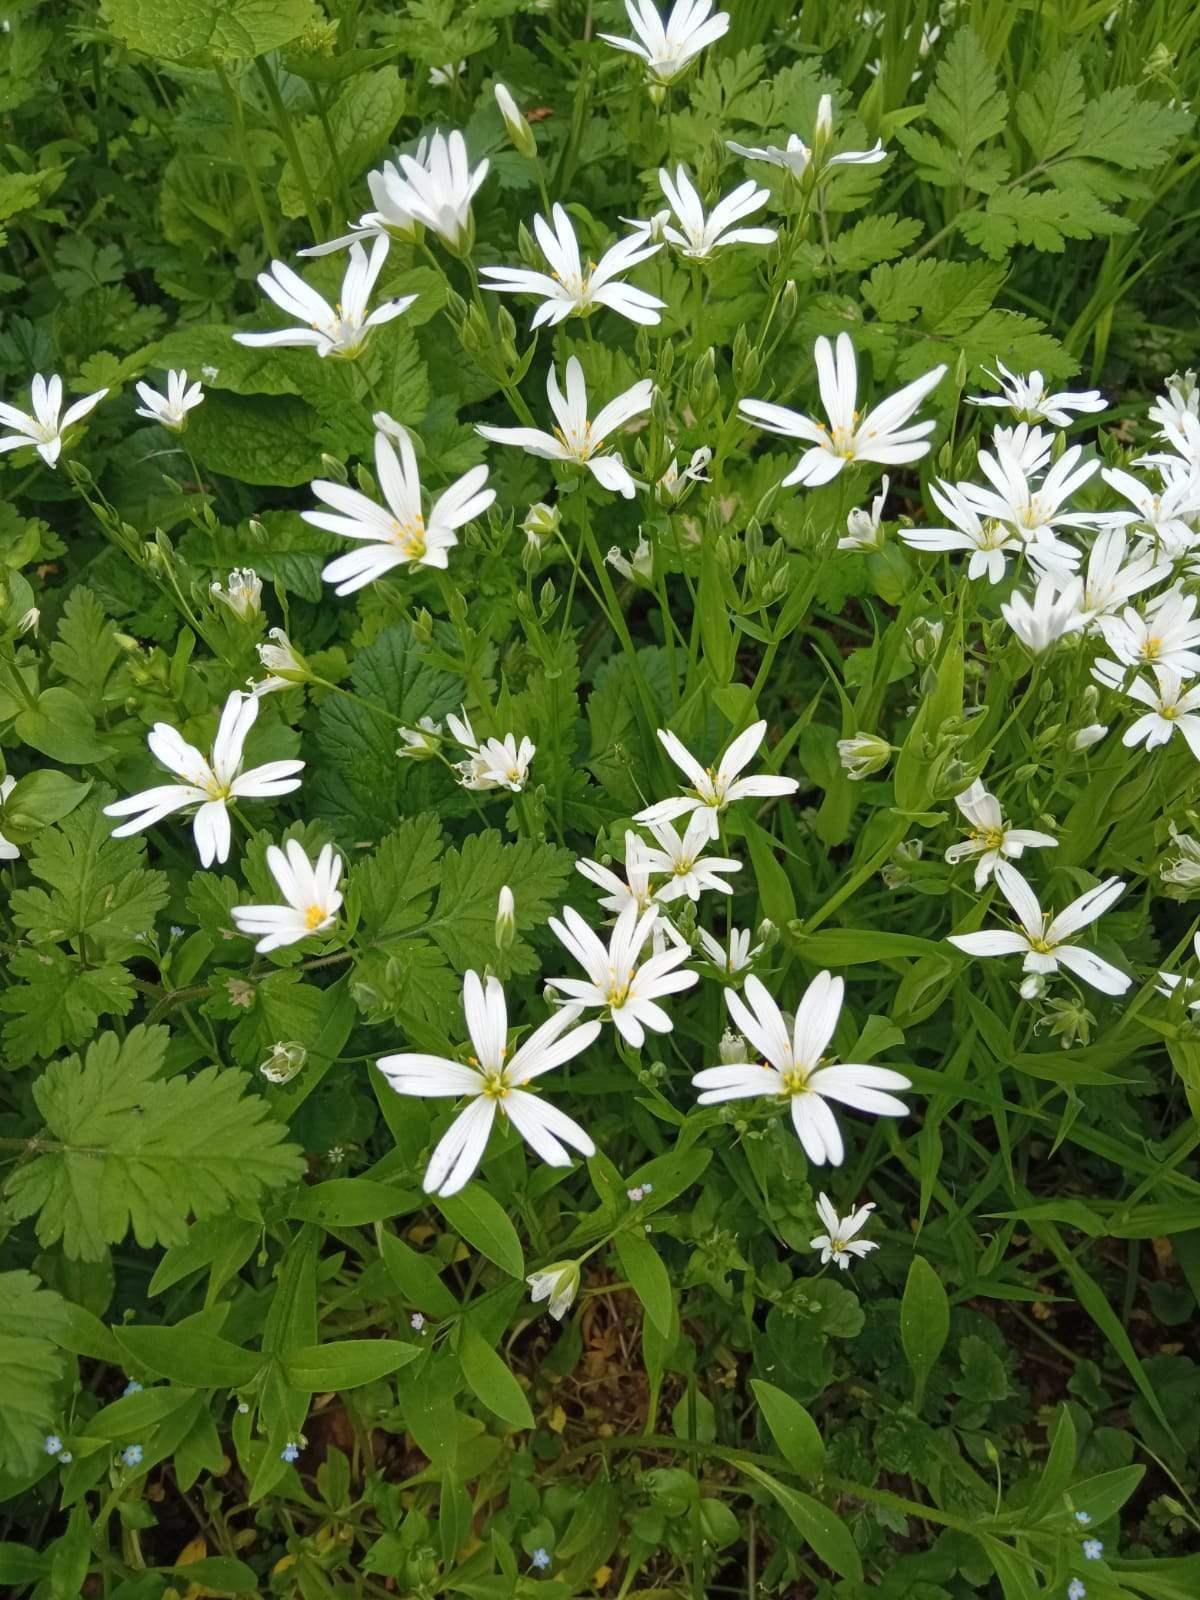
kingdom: Plantae
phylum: Tracheophyta
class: Magnoliopsida
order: Caryophyllales
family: Caryophyllaceae
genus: Rabelera
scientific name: Rabelera holostea
